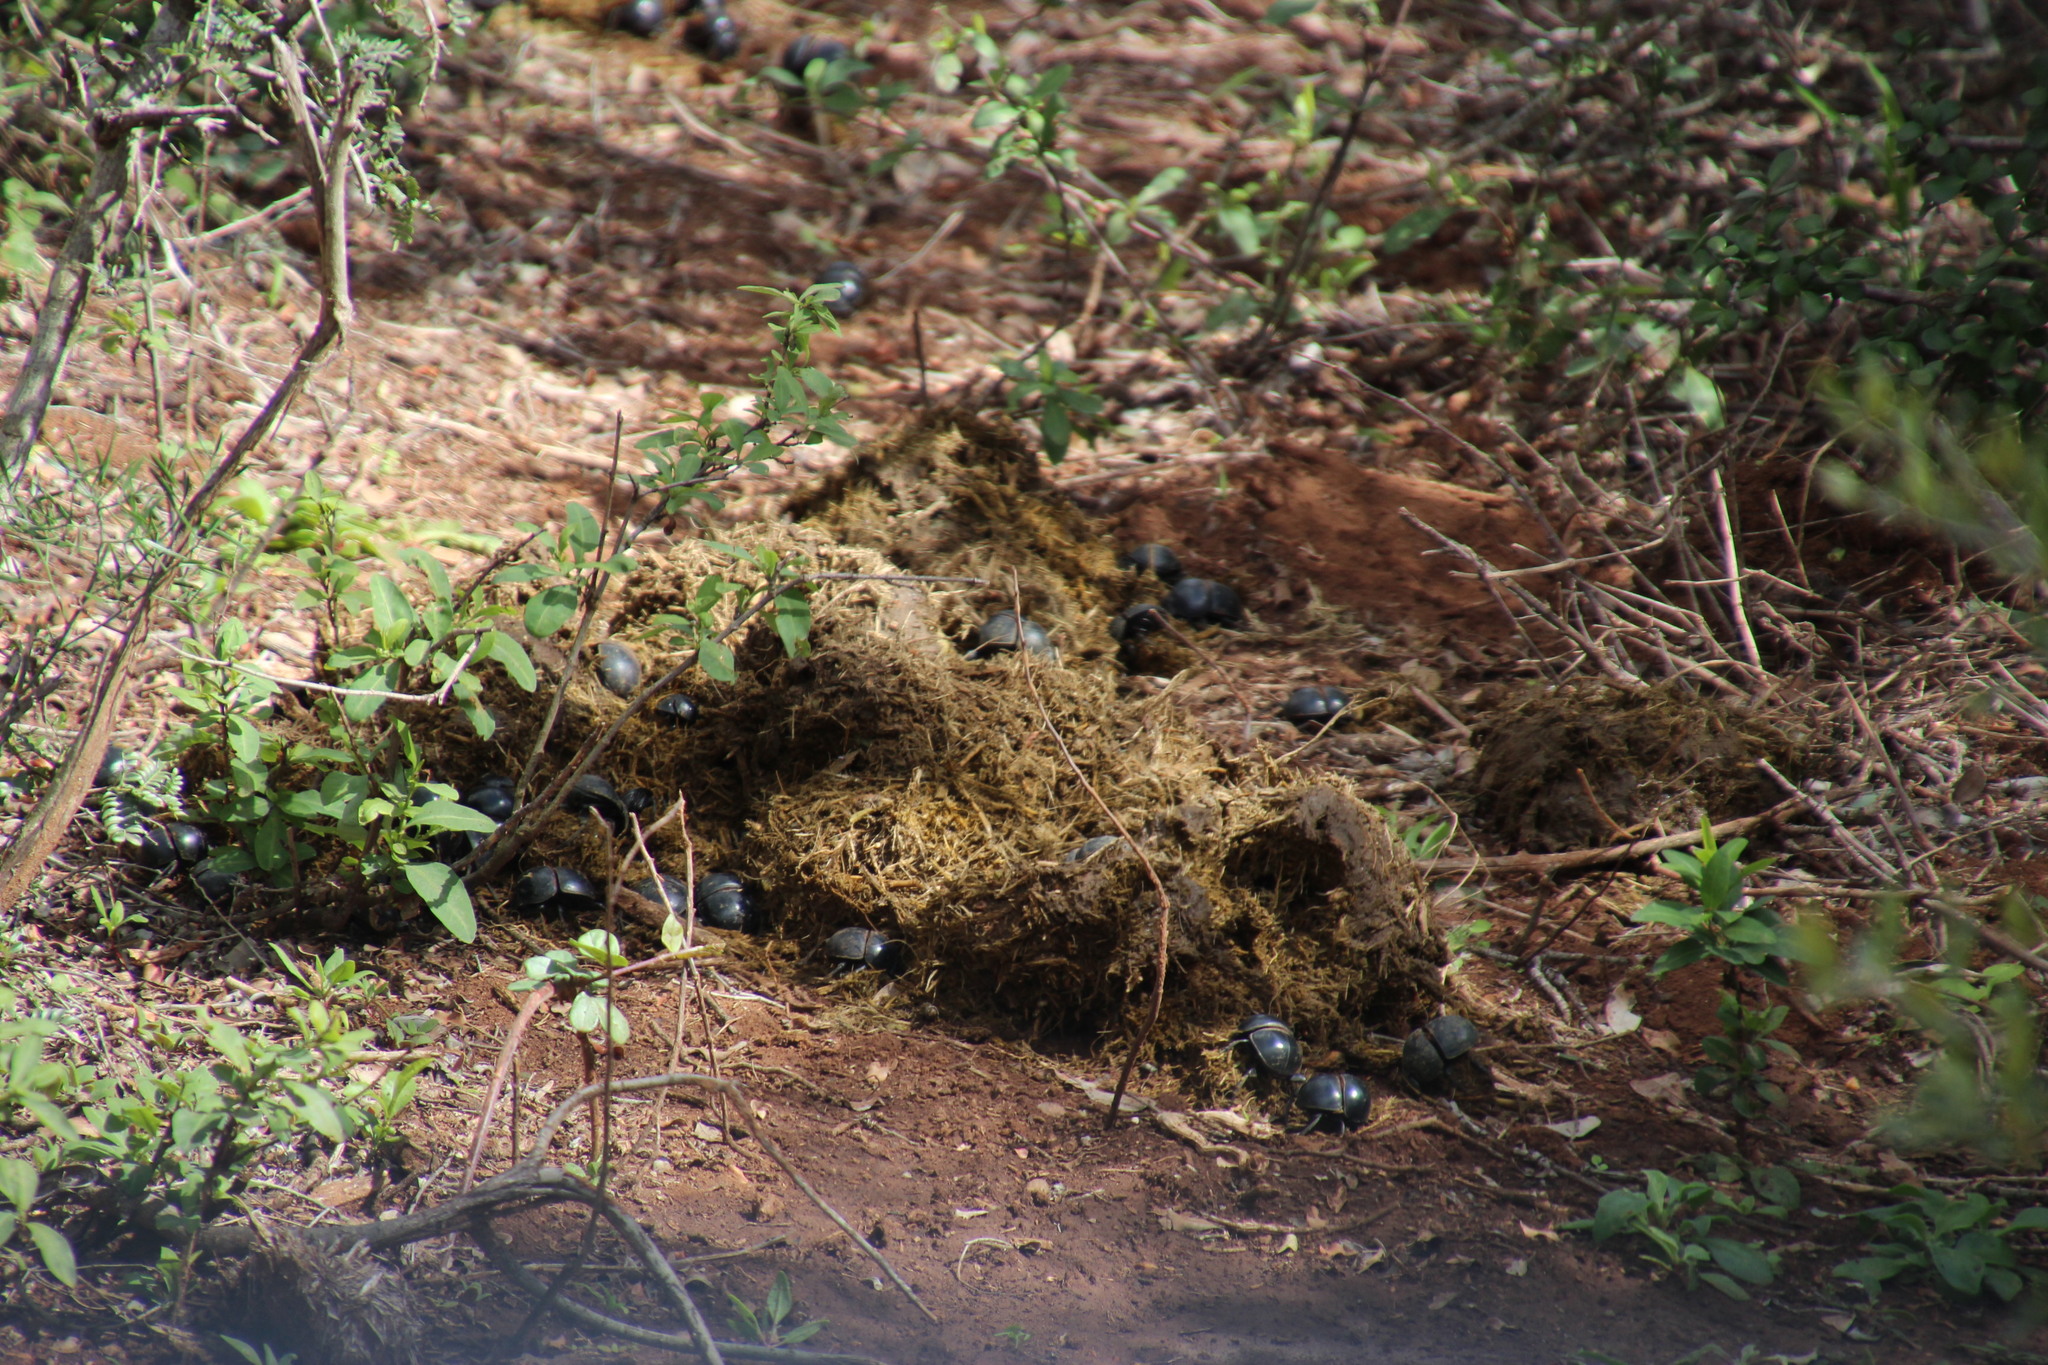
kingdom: Animalia
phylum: Arthropoda
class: Insecta
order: Coleoptera
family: Scarabaeidae
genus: Circellium
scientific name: Circellium bacchus
